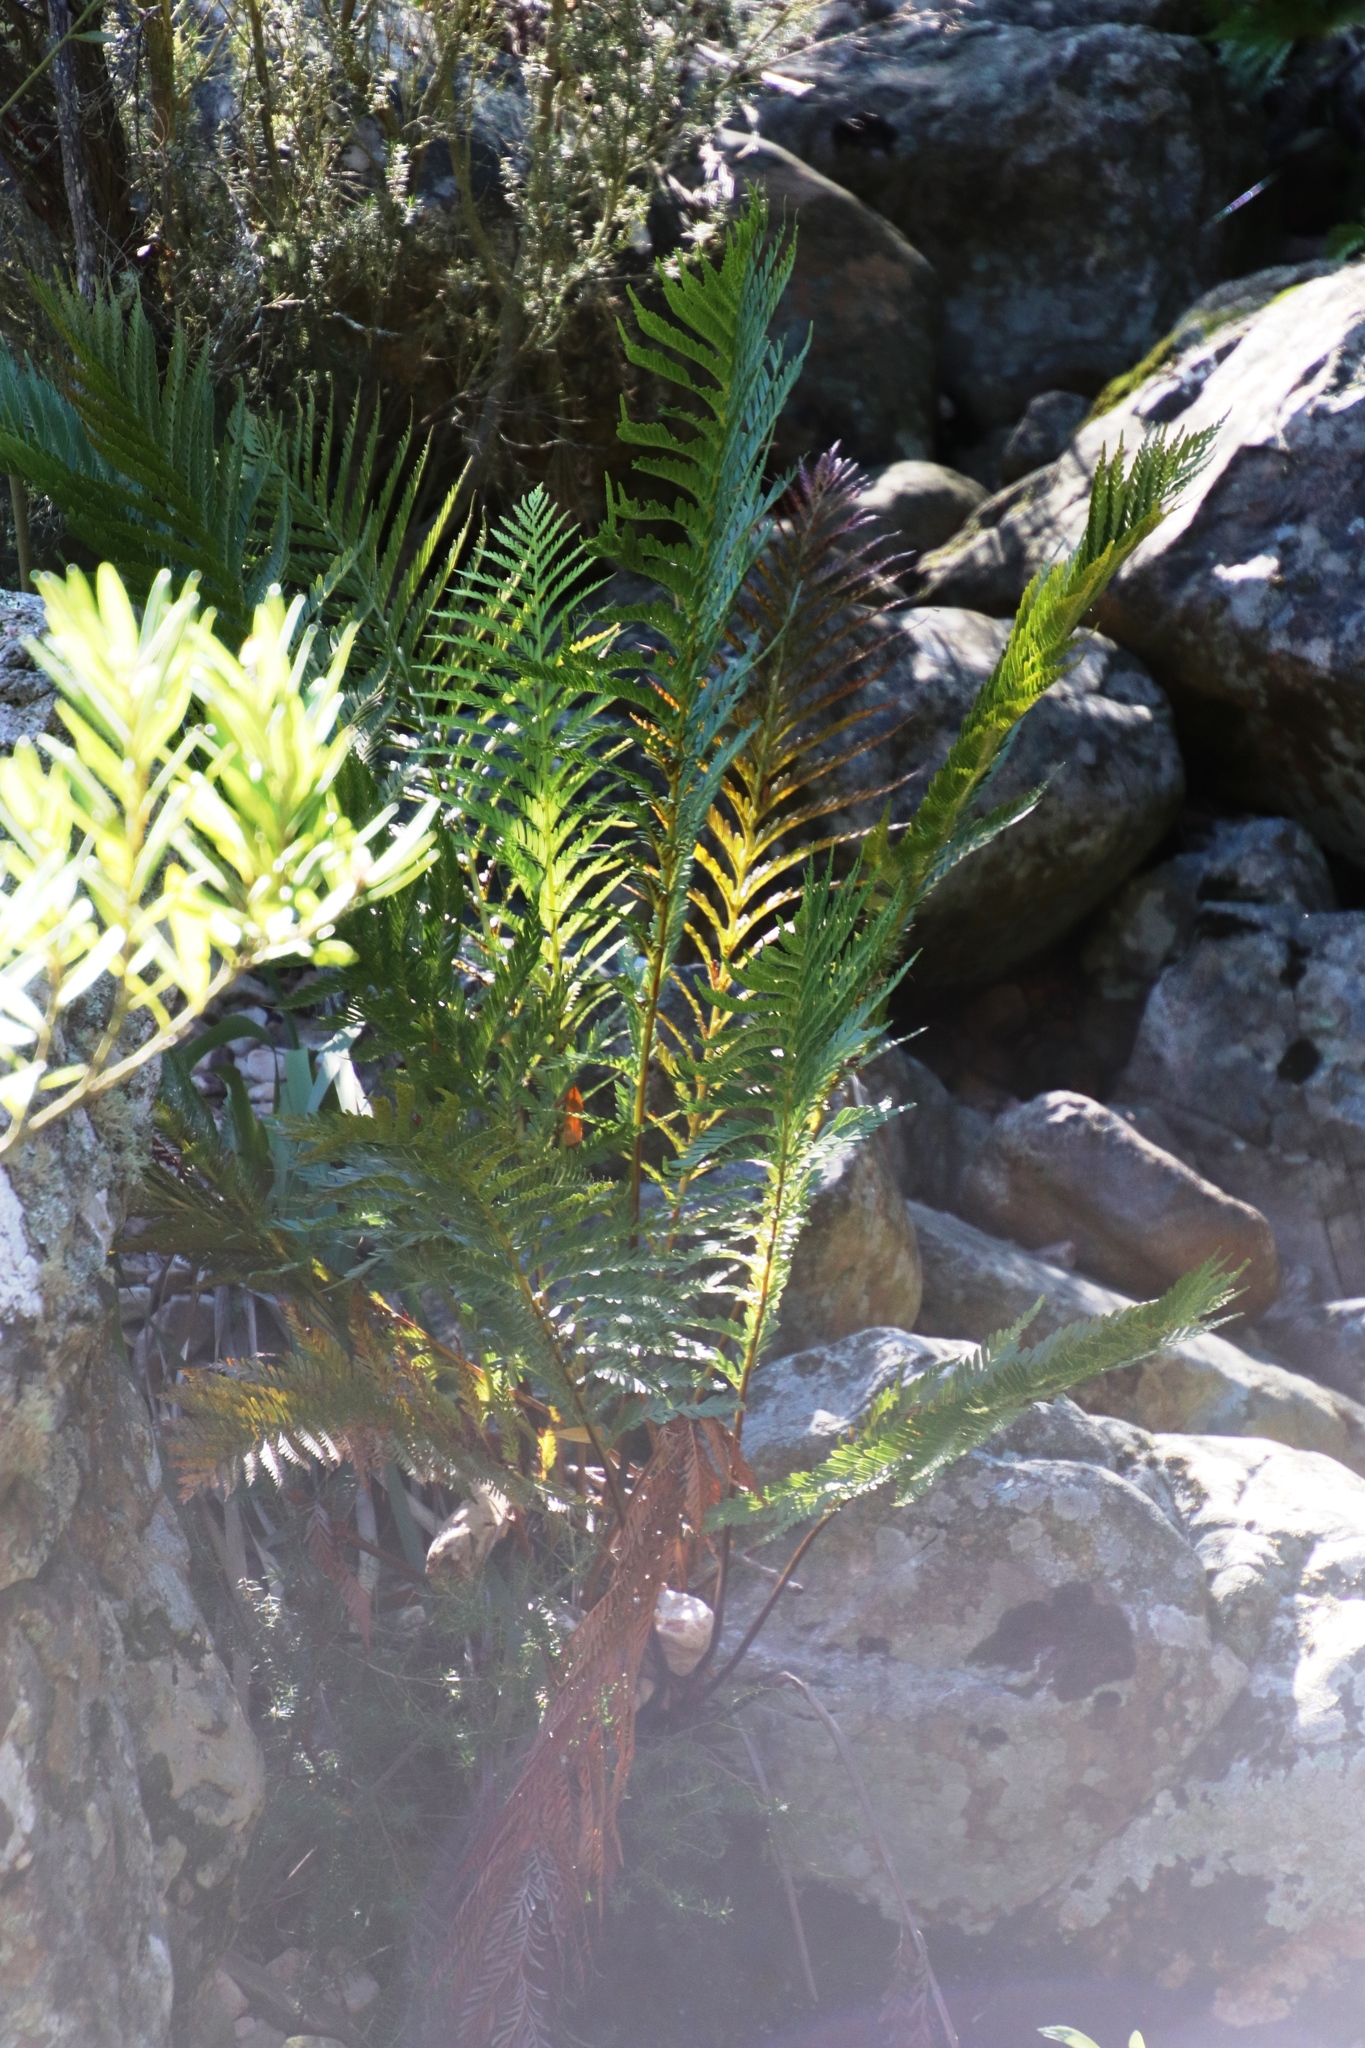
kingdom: Plantae
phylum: Tracheophyta
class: Polypodiopsida
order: Osmundales
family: Osmundaceae
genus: Todea
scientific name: Todea barbara
